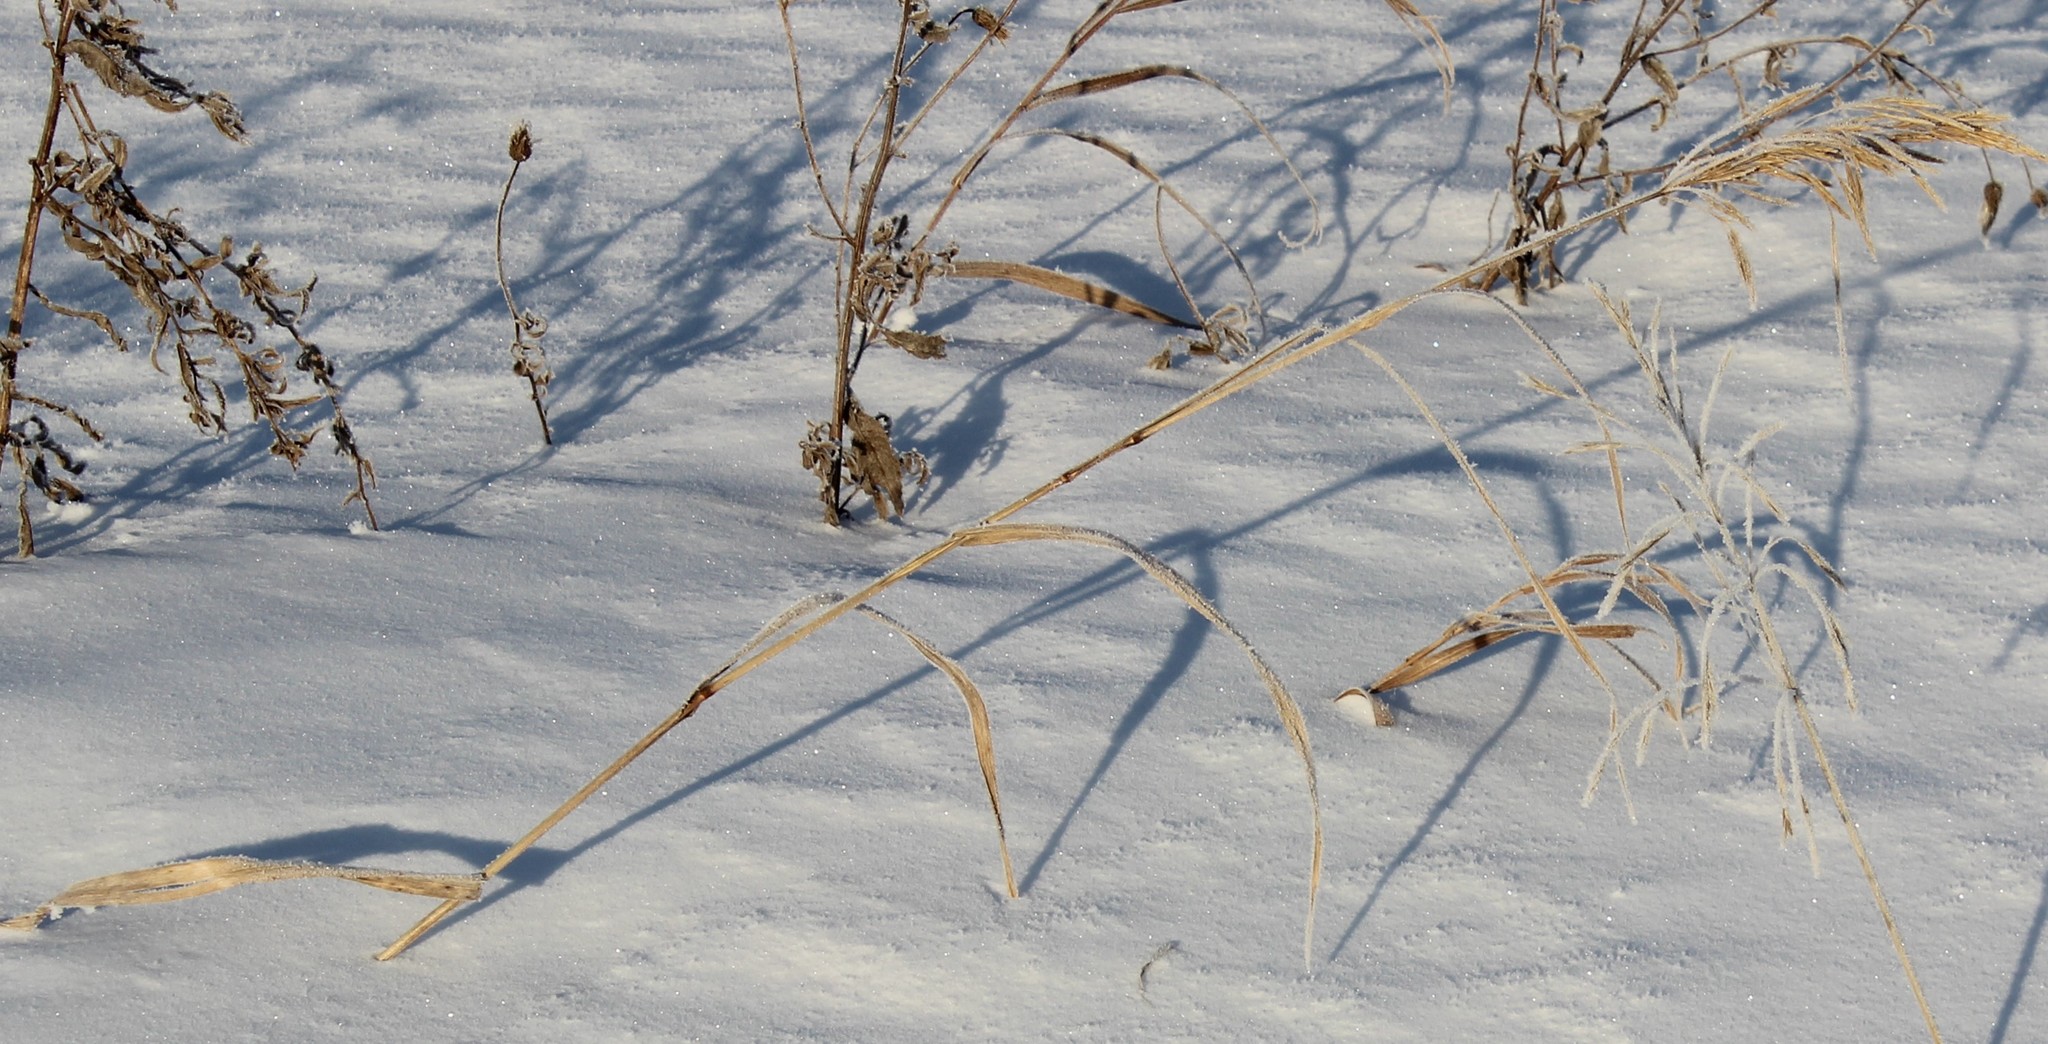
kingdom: Plantae
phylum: Tracheophyta
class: Liliopsida
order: Poales
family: Poaceae
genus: Bromus
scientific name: Bromus inermis
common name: Smooth brome
